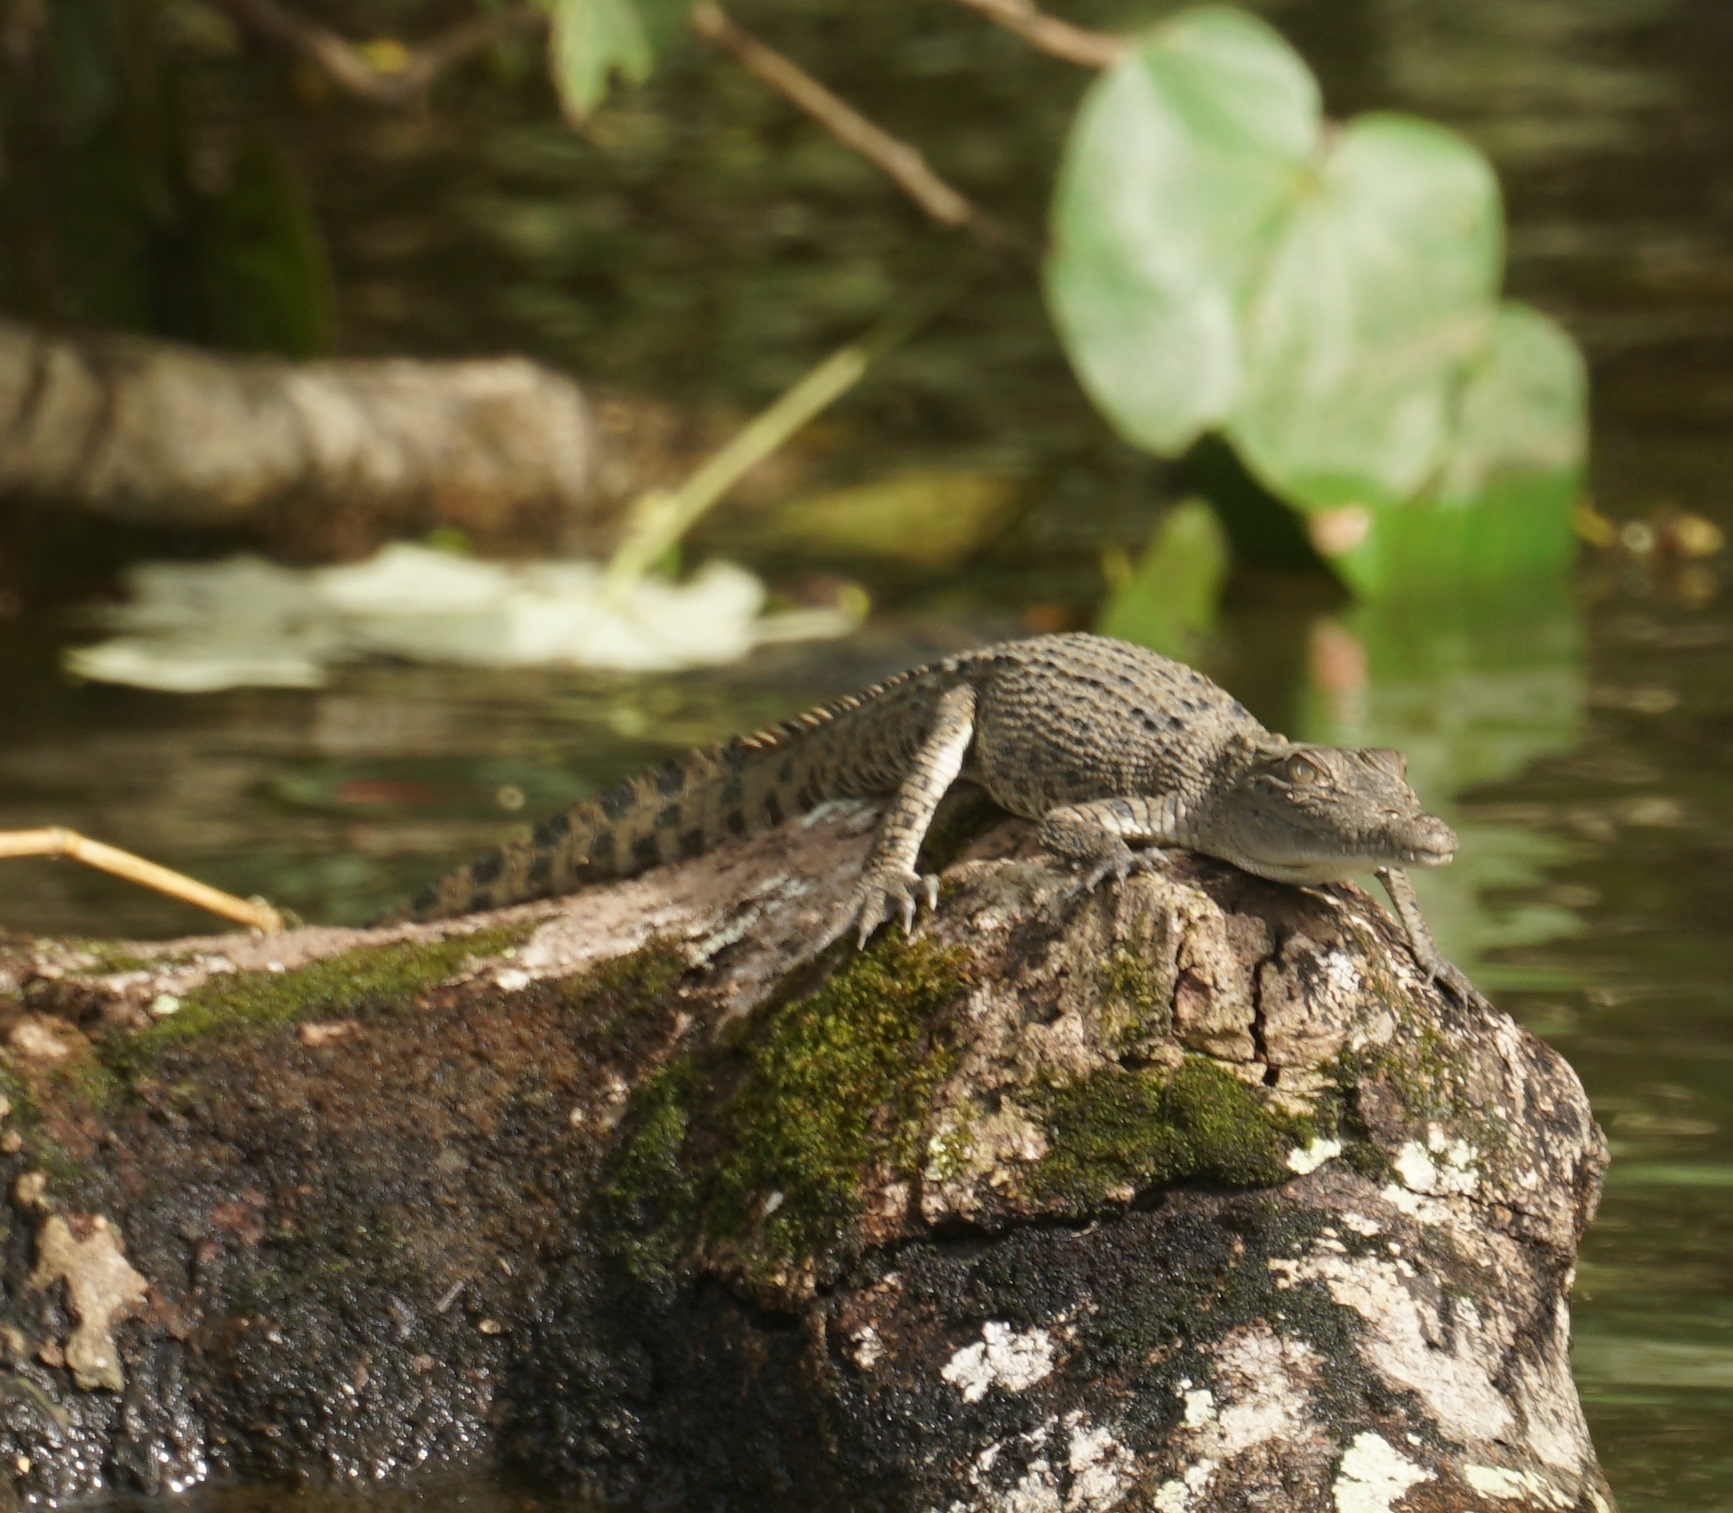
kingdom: Animalia
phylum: Chordata
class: Crocodylia
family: Crocodylidae
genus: Crocodylus
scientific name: Crocodylus porosus
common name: Saltwater crocodile
